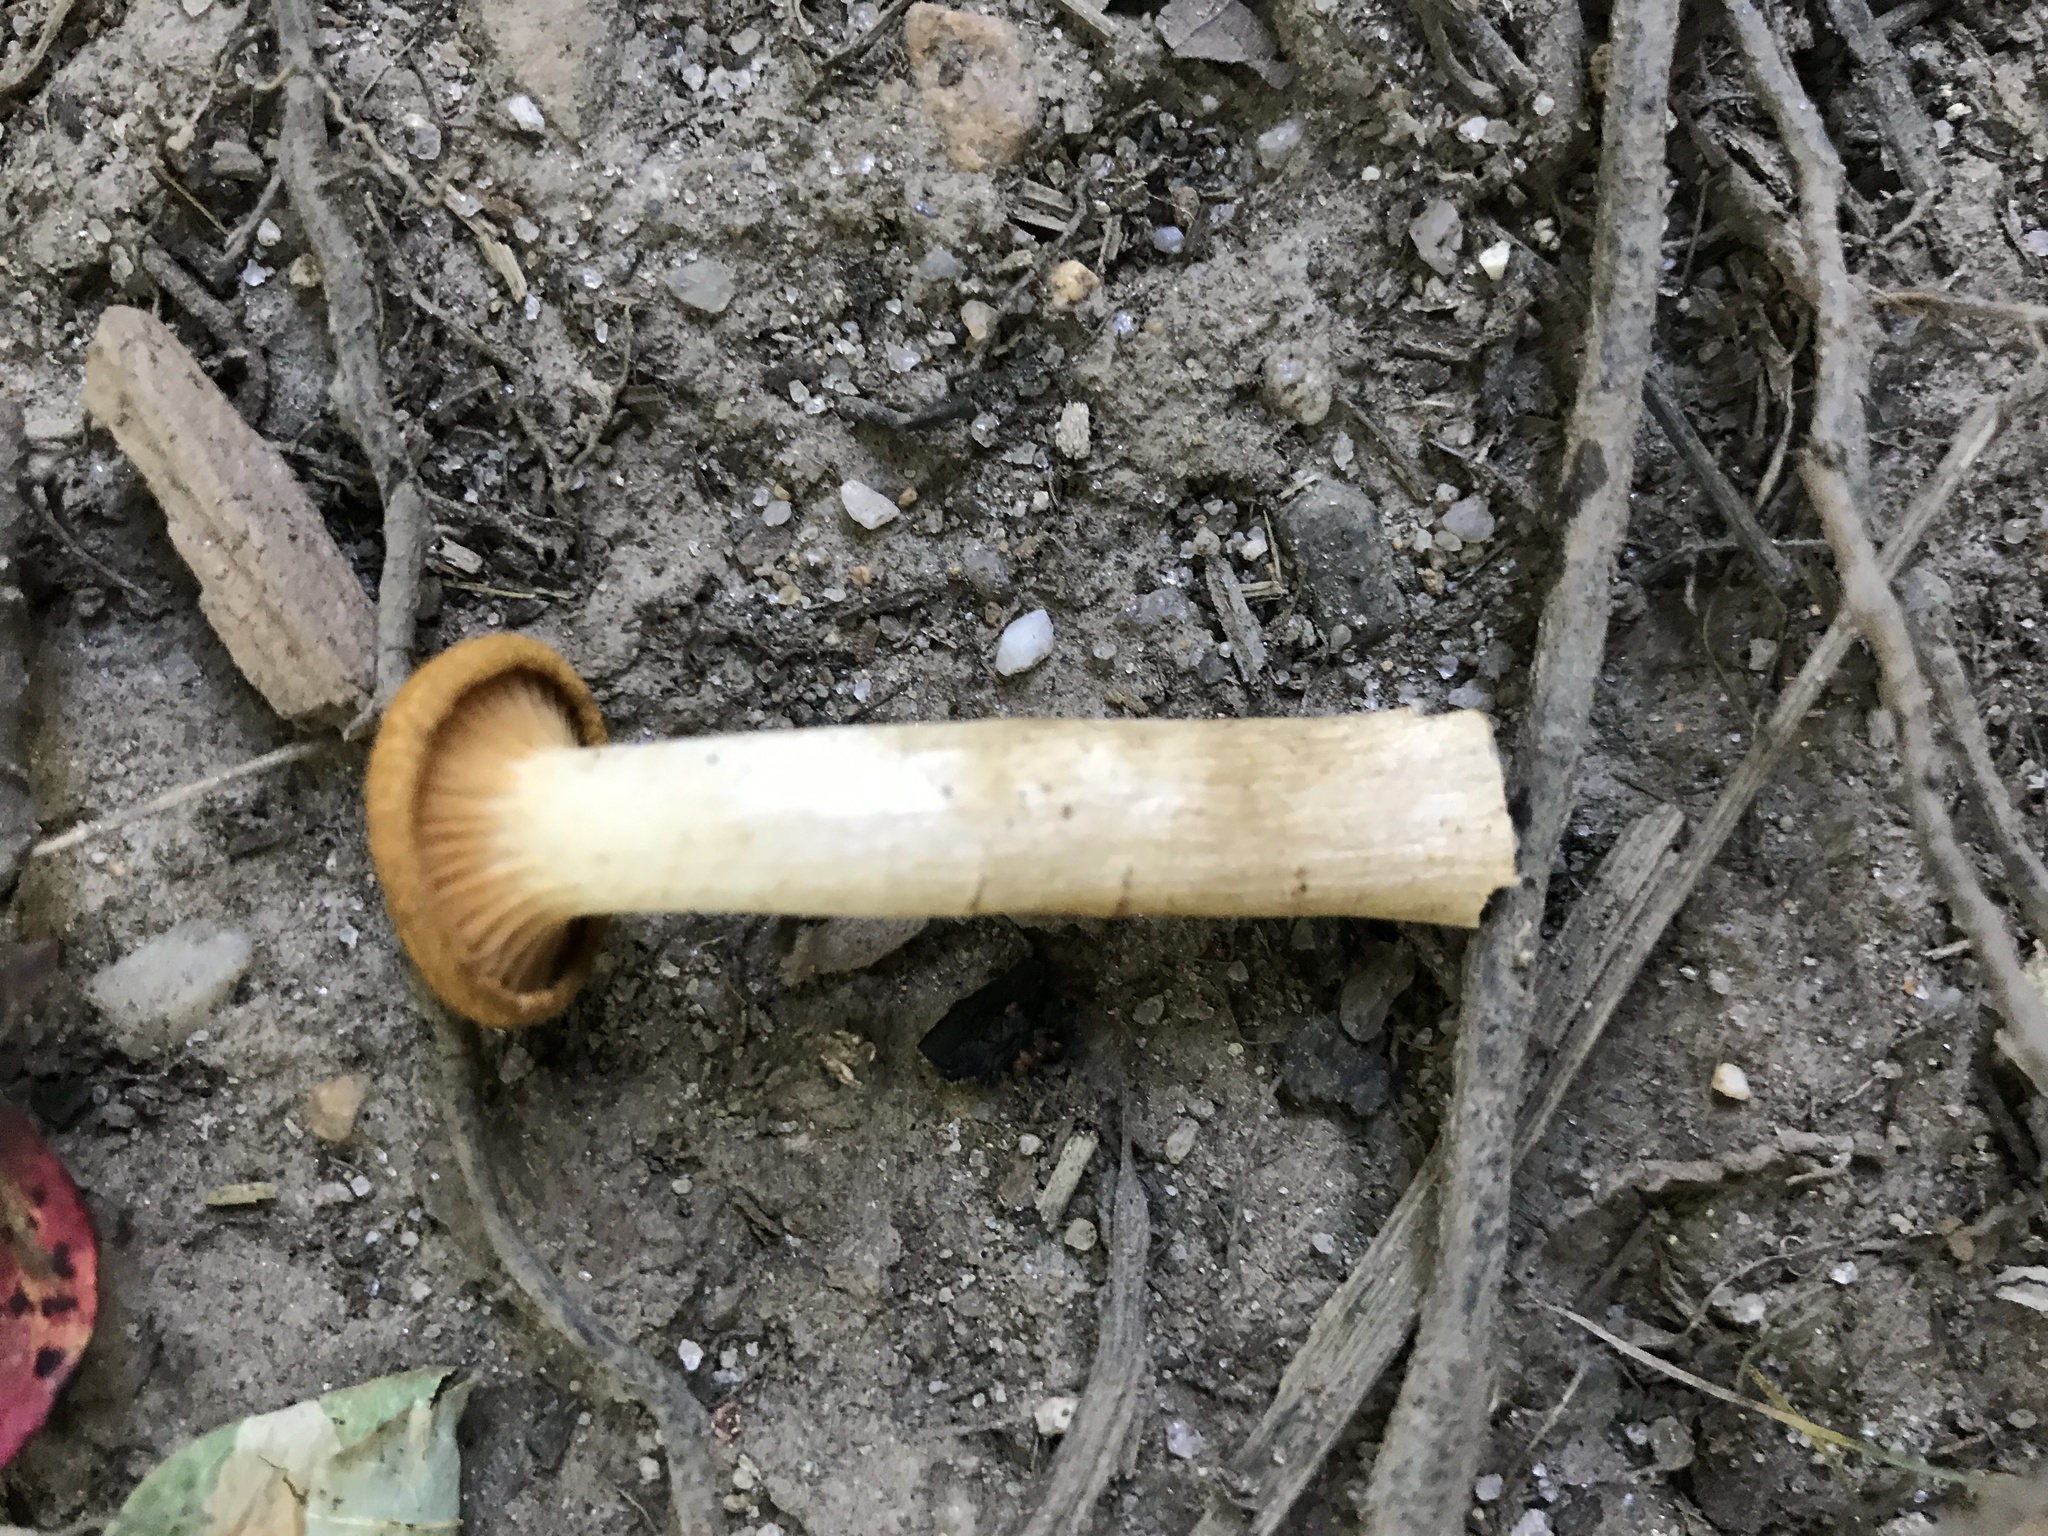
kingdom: Fungi
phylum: Basidiomycota
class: Agaricomycetes
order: Agaricales
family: Physalacriaceae
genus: Desarmillaria
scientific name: Desarmillaria caespitosa
